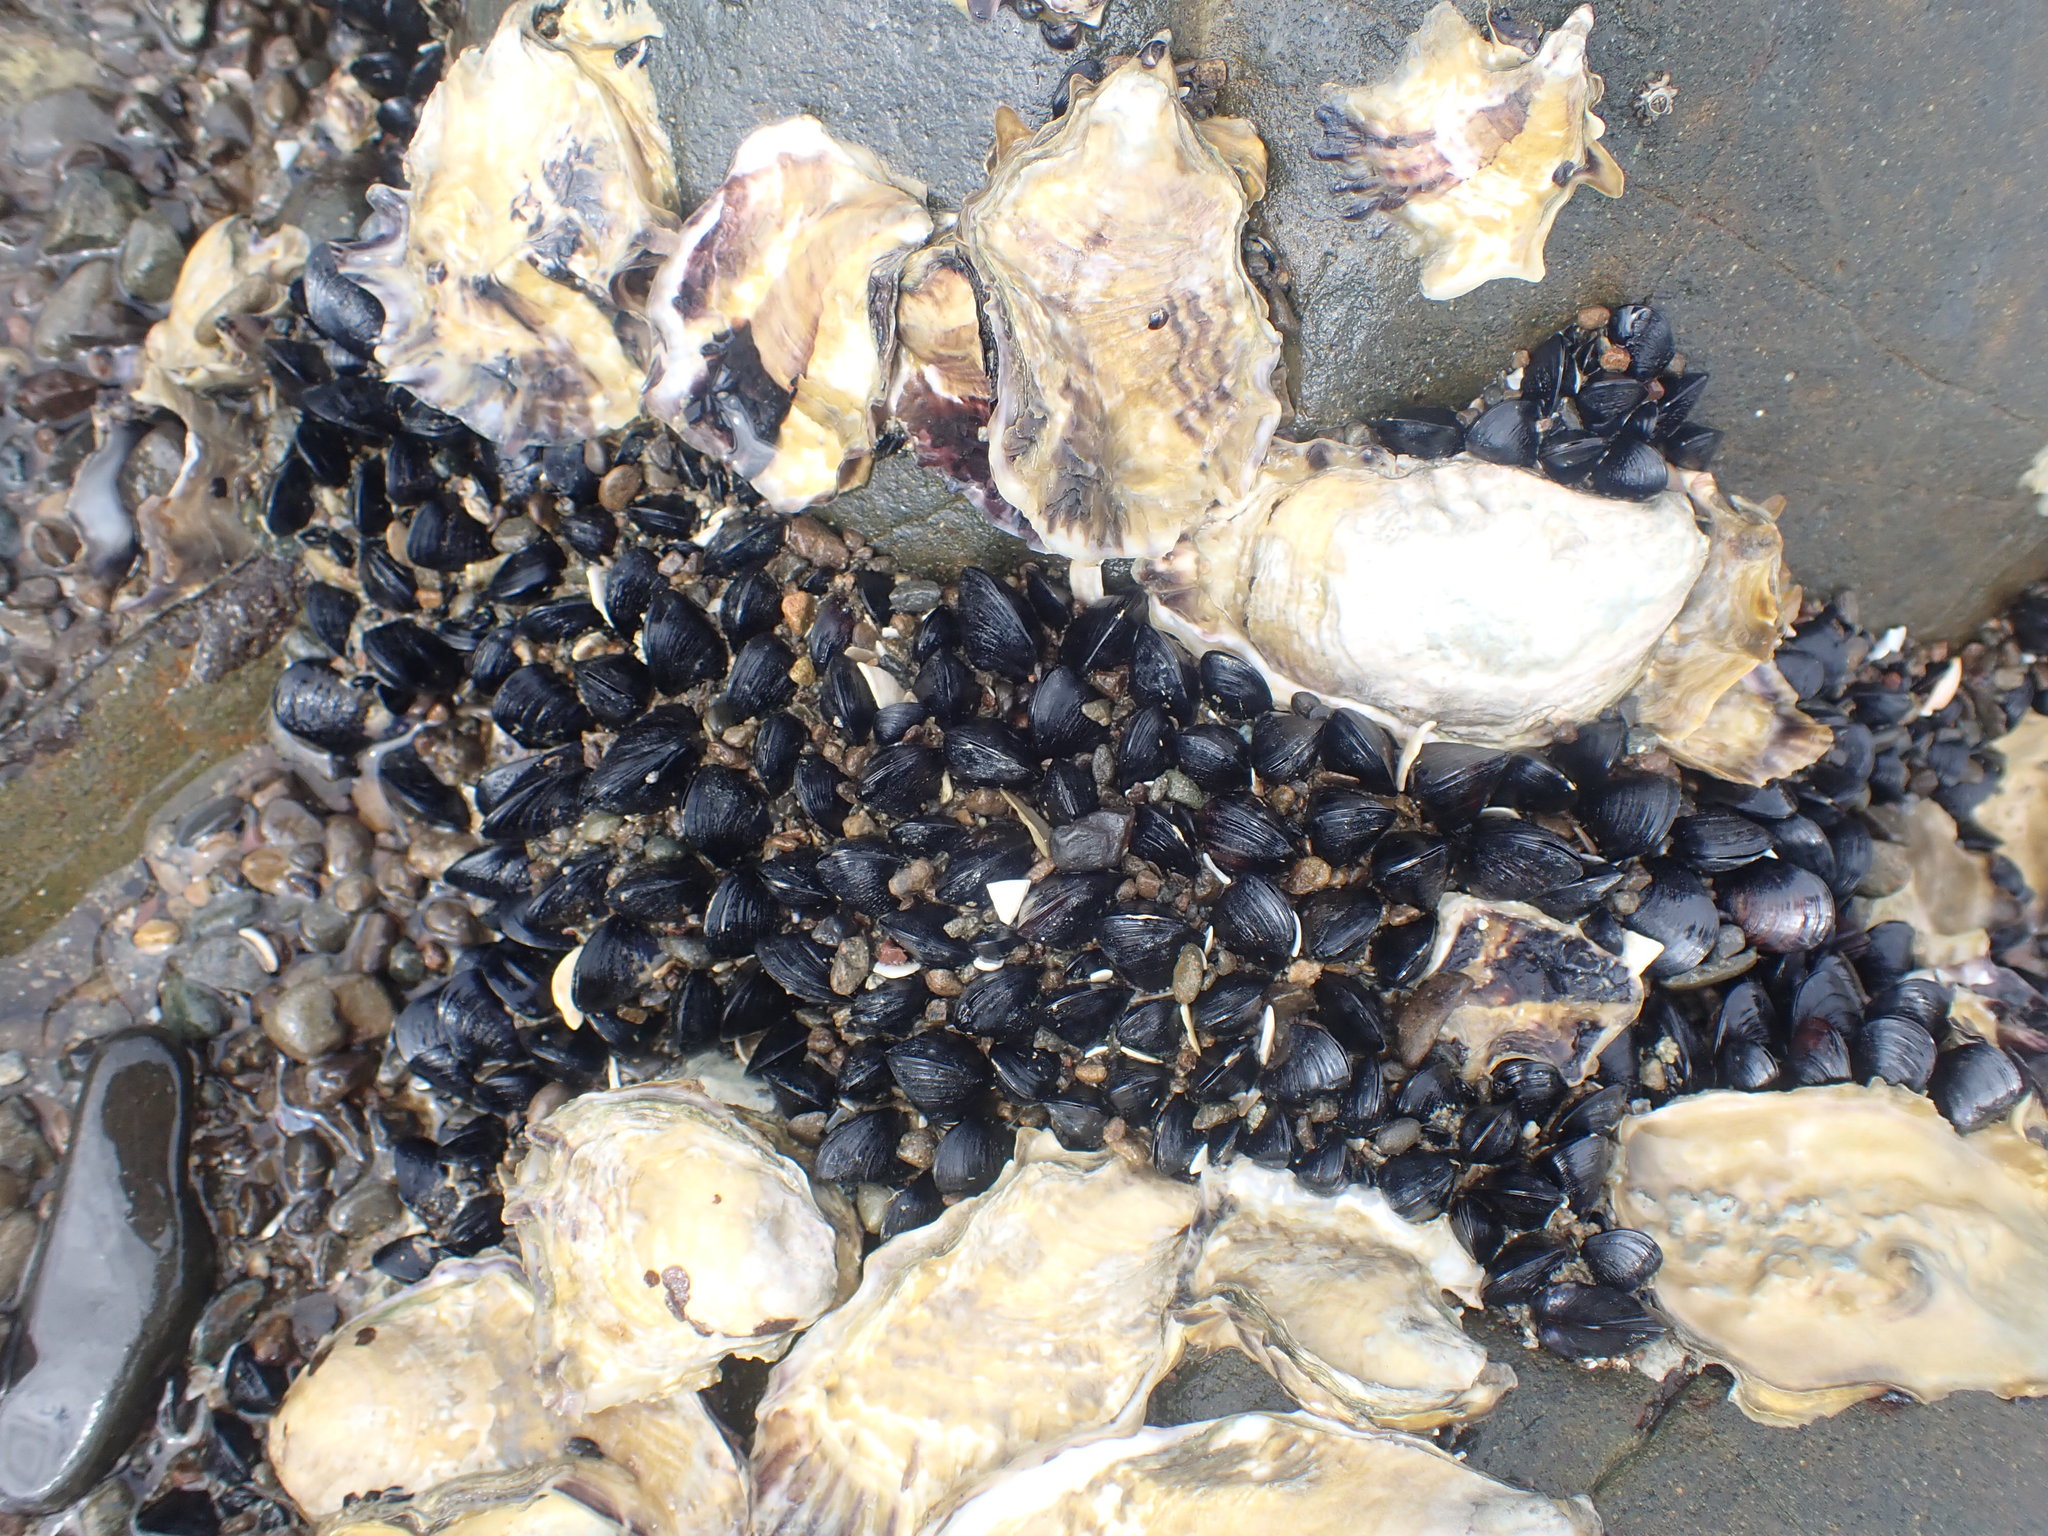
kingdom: Animalia
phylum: Mollusca
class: Bivalvia
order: Mytilida
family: Mytilidae
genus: Xenostrobus
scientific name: Xenostrobus neozelanicus
